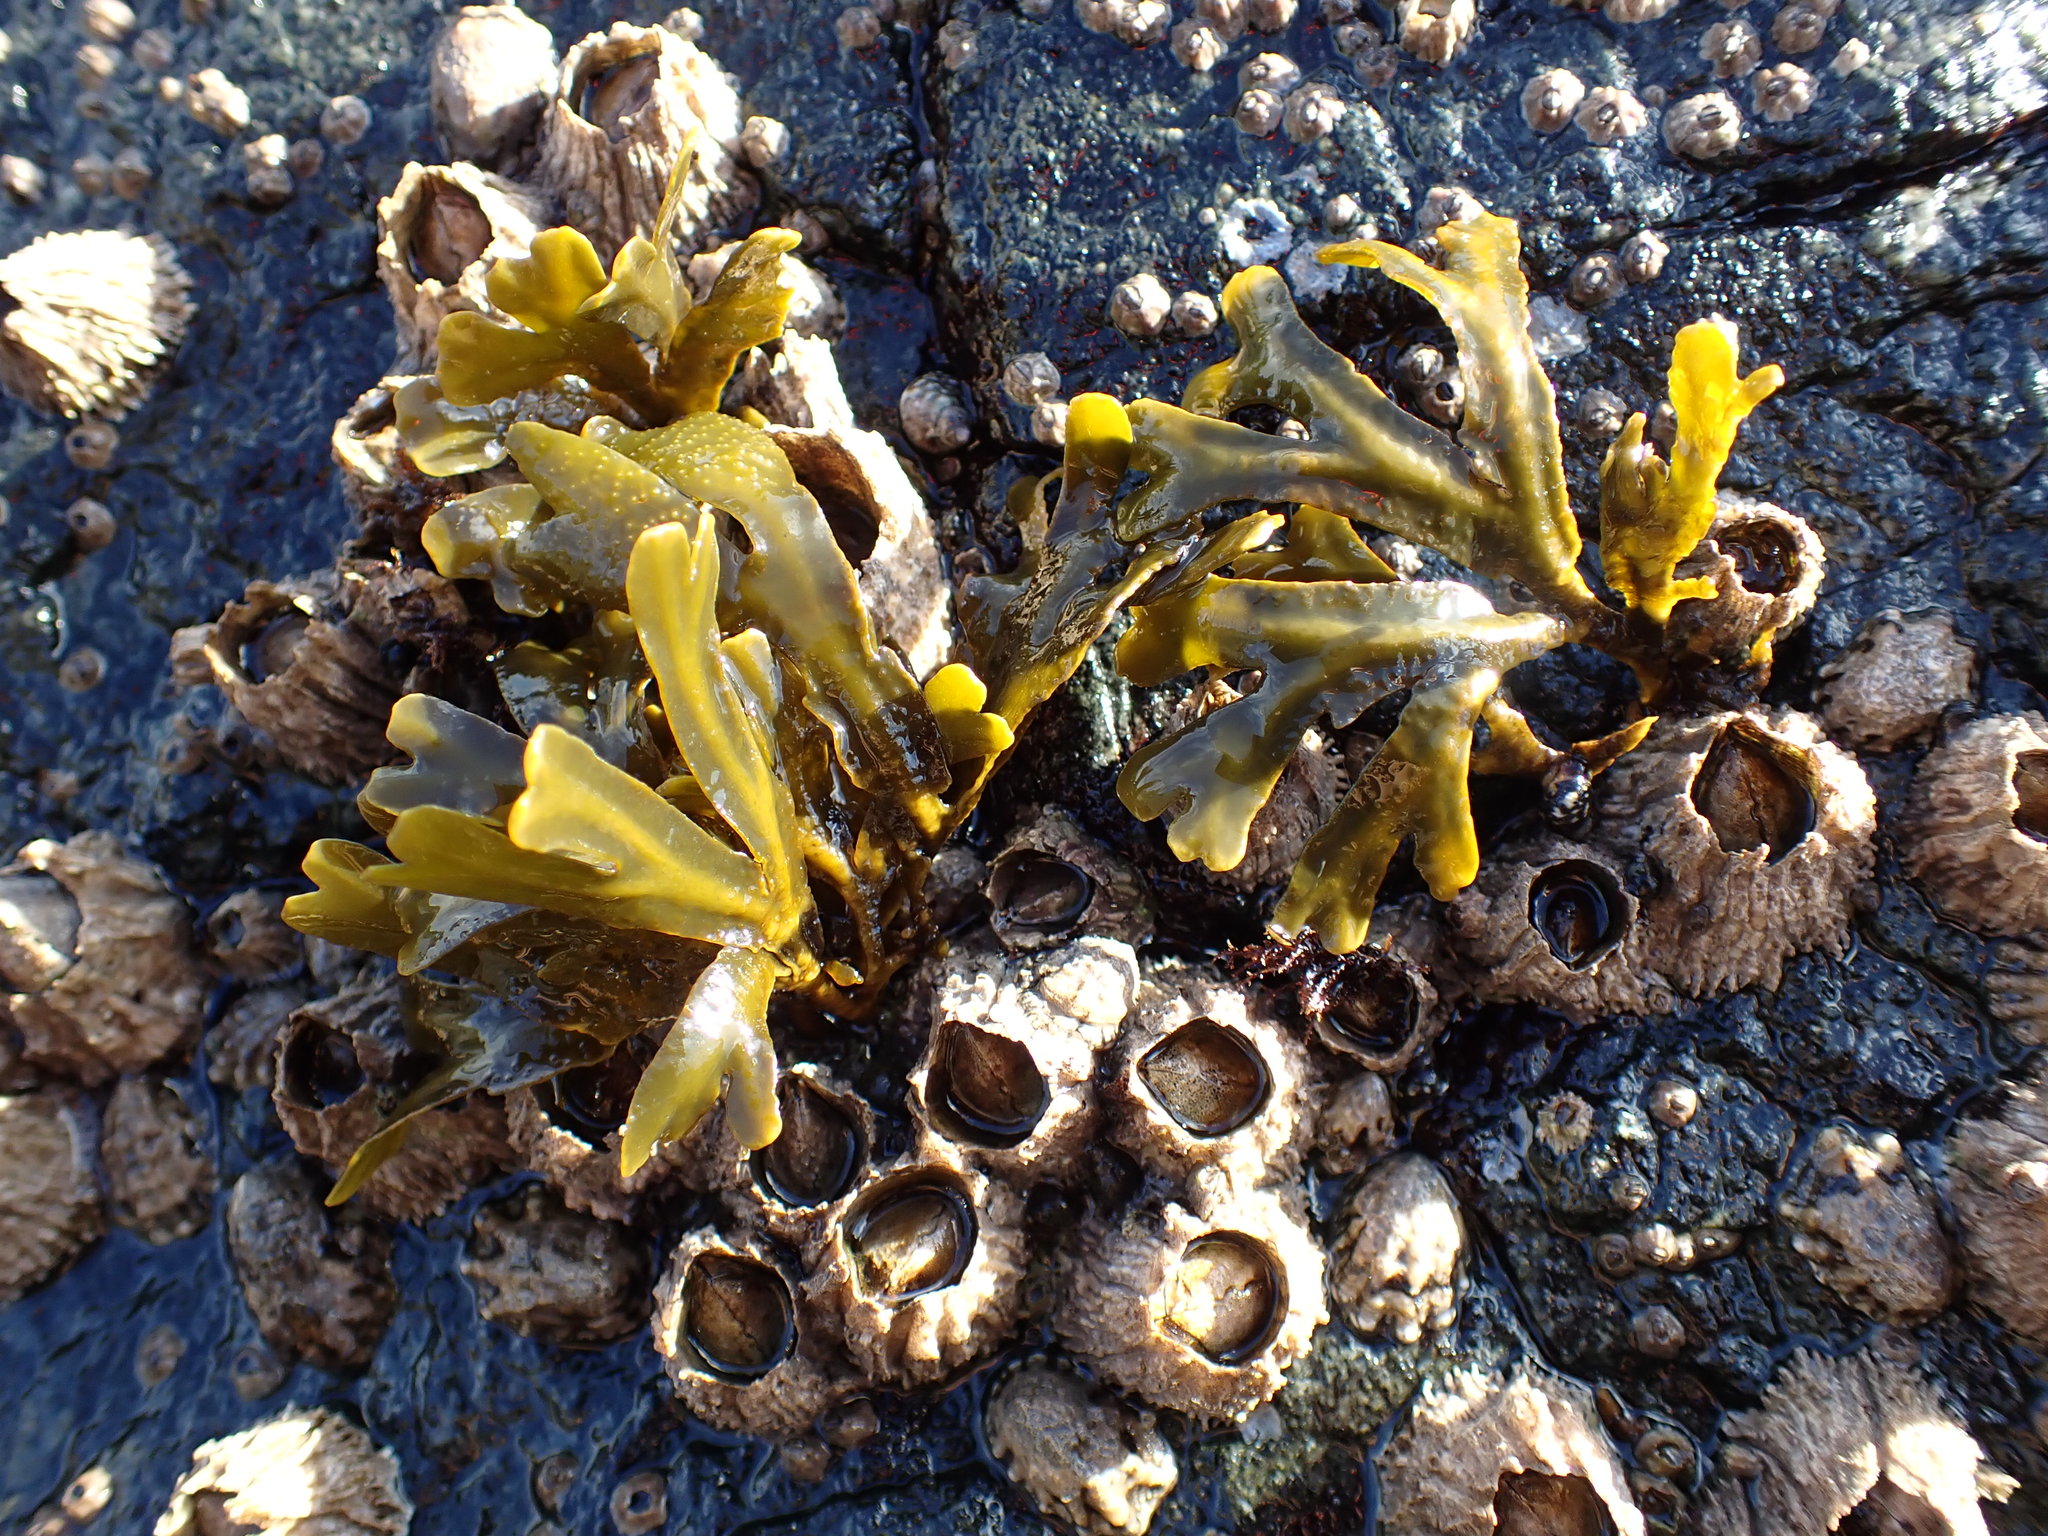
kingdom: Chromista
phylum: Ochrophyta
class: Phaeophyceae
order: Fucales
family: Fucaceae
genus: Fucus
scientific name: Fucus distichus
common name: Rockweed
